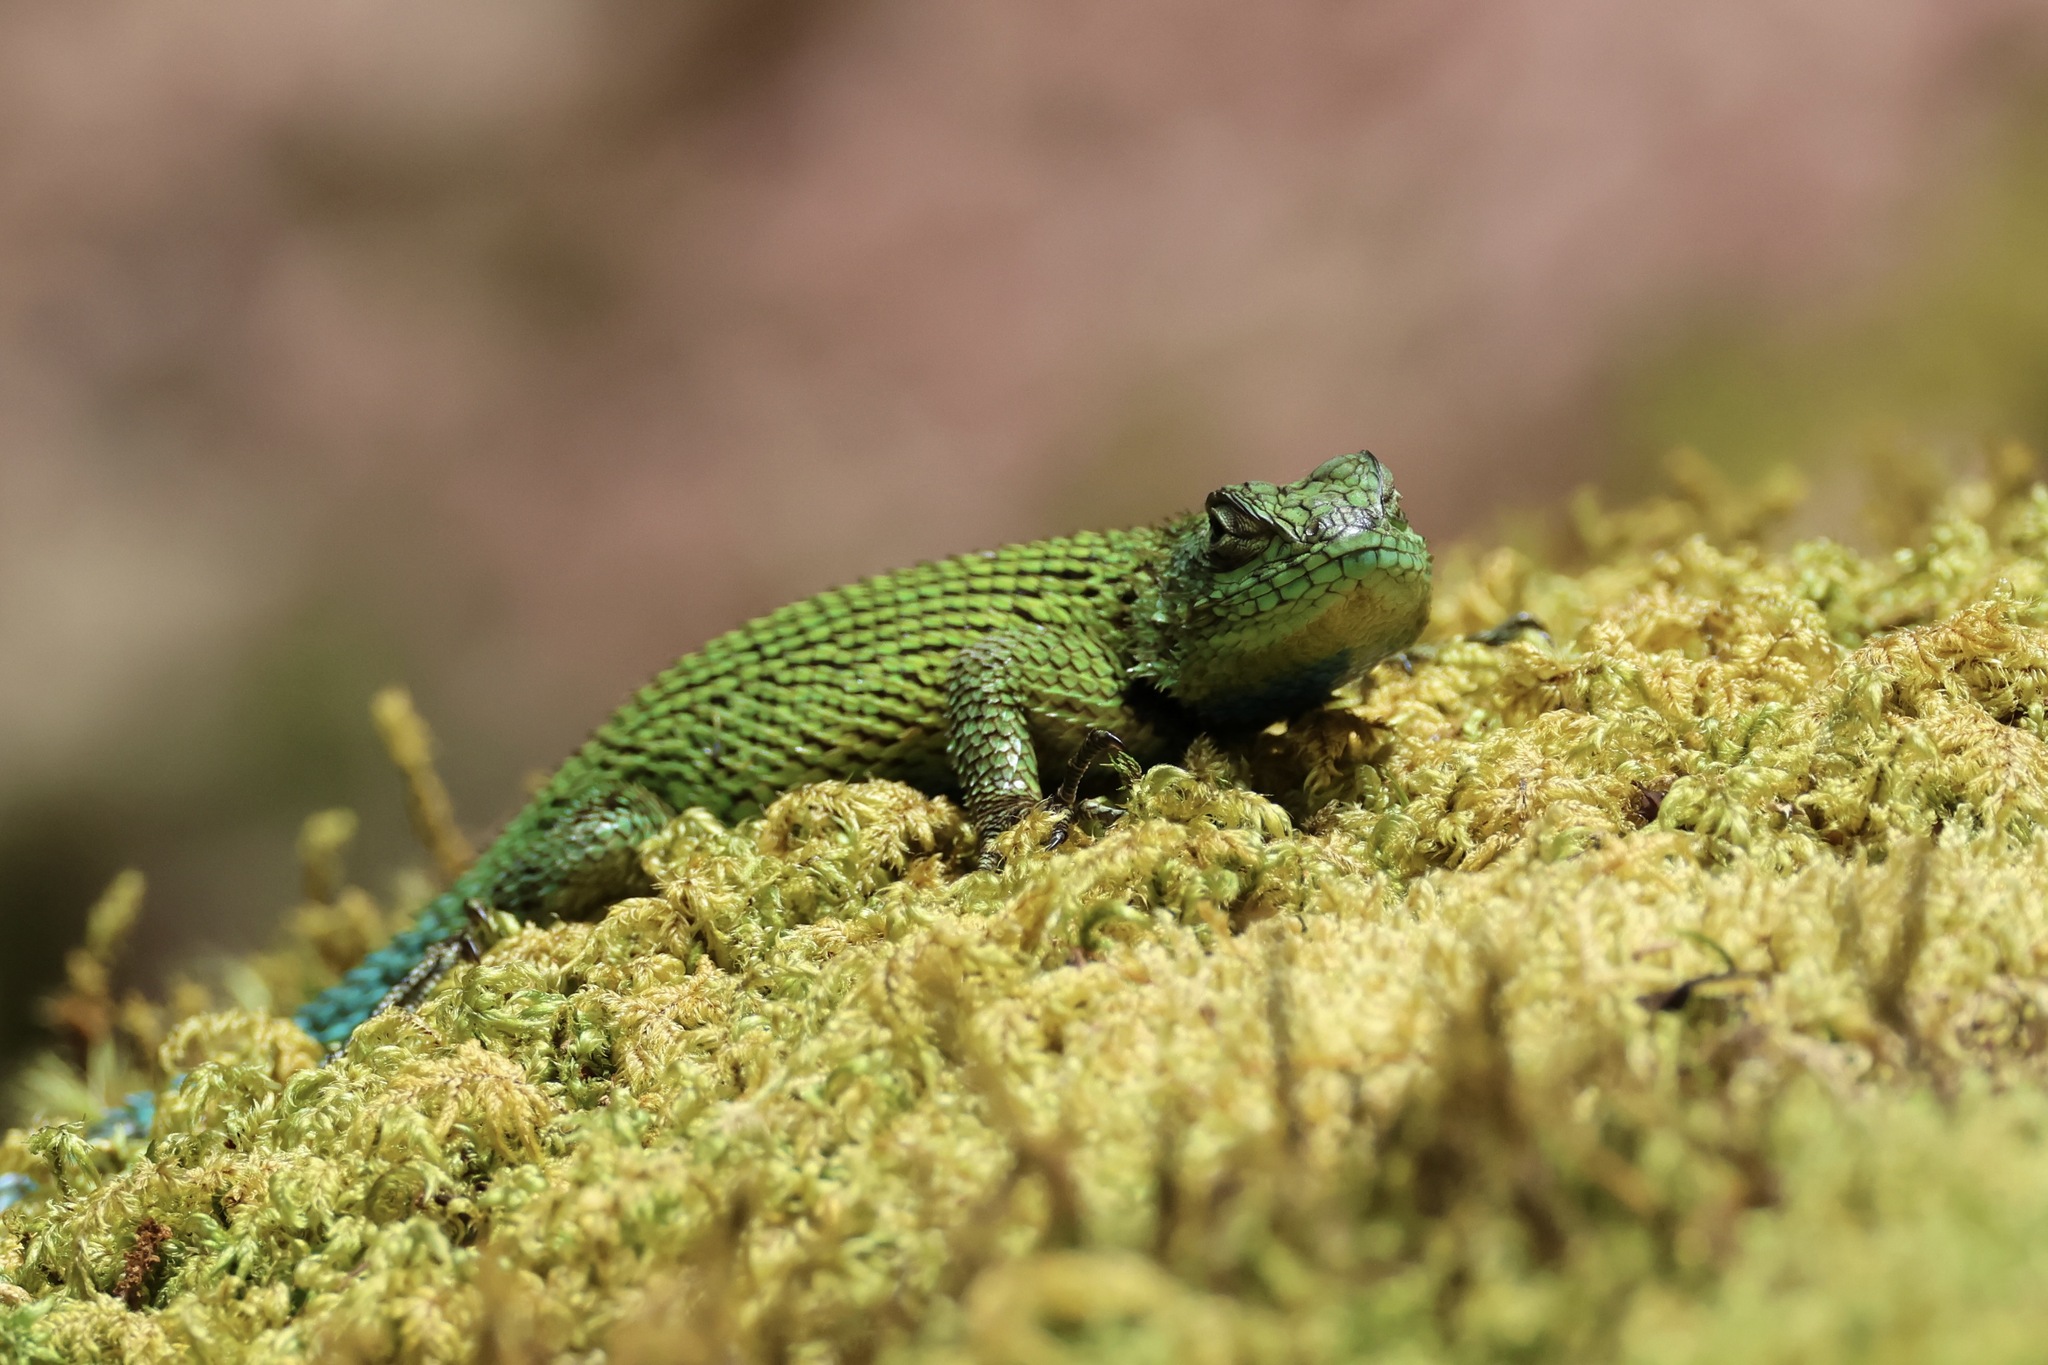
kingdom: Animalia
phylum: Chordata
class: Squamata
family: Phrynosomatidae
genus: Sceloporus
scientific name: Sceloporus malachiticus
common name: Green spiny lizard
